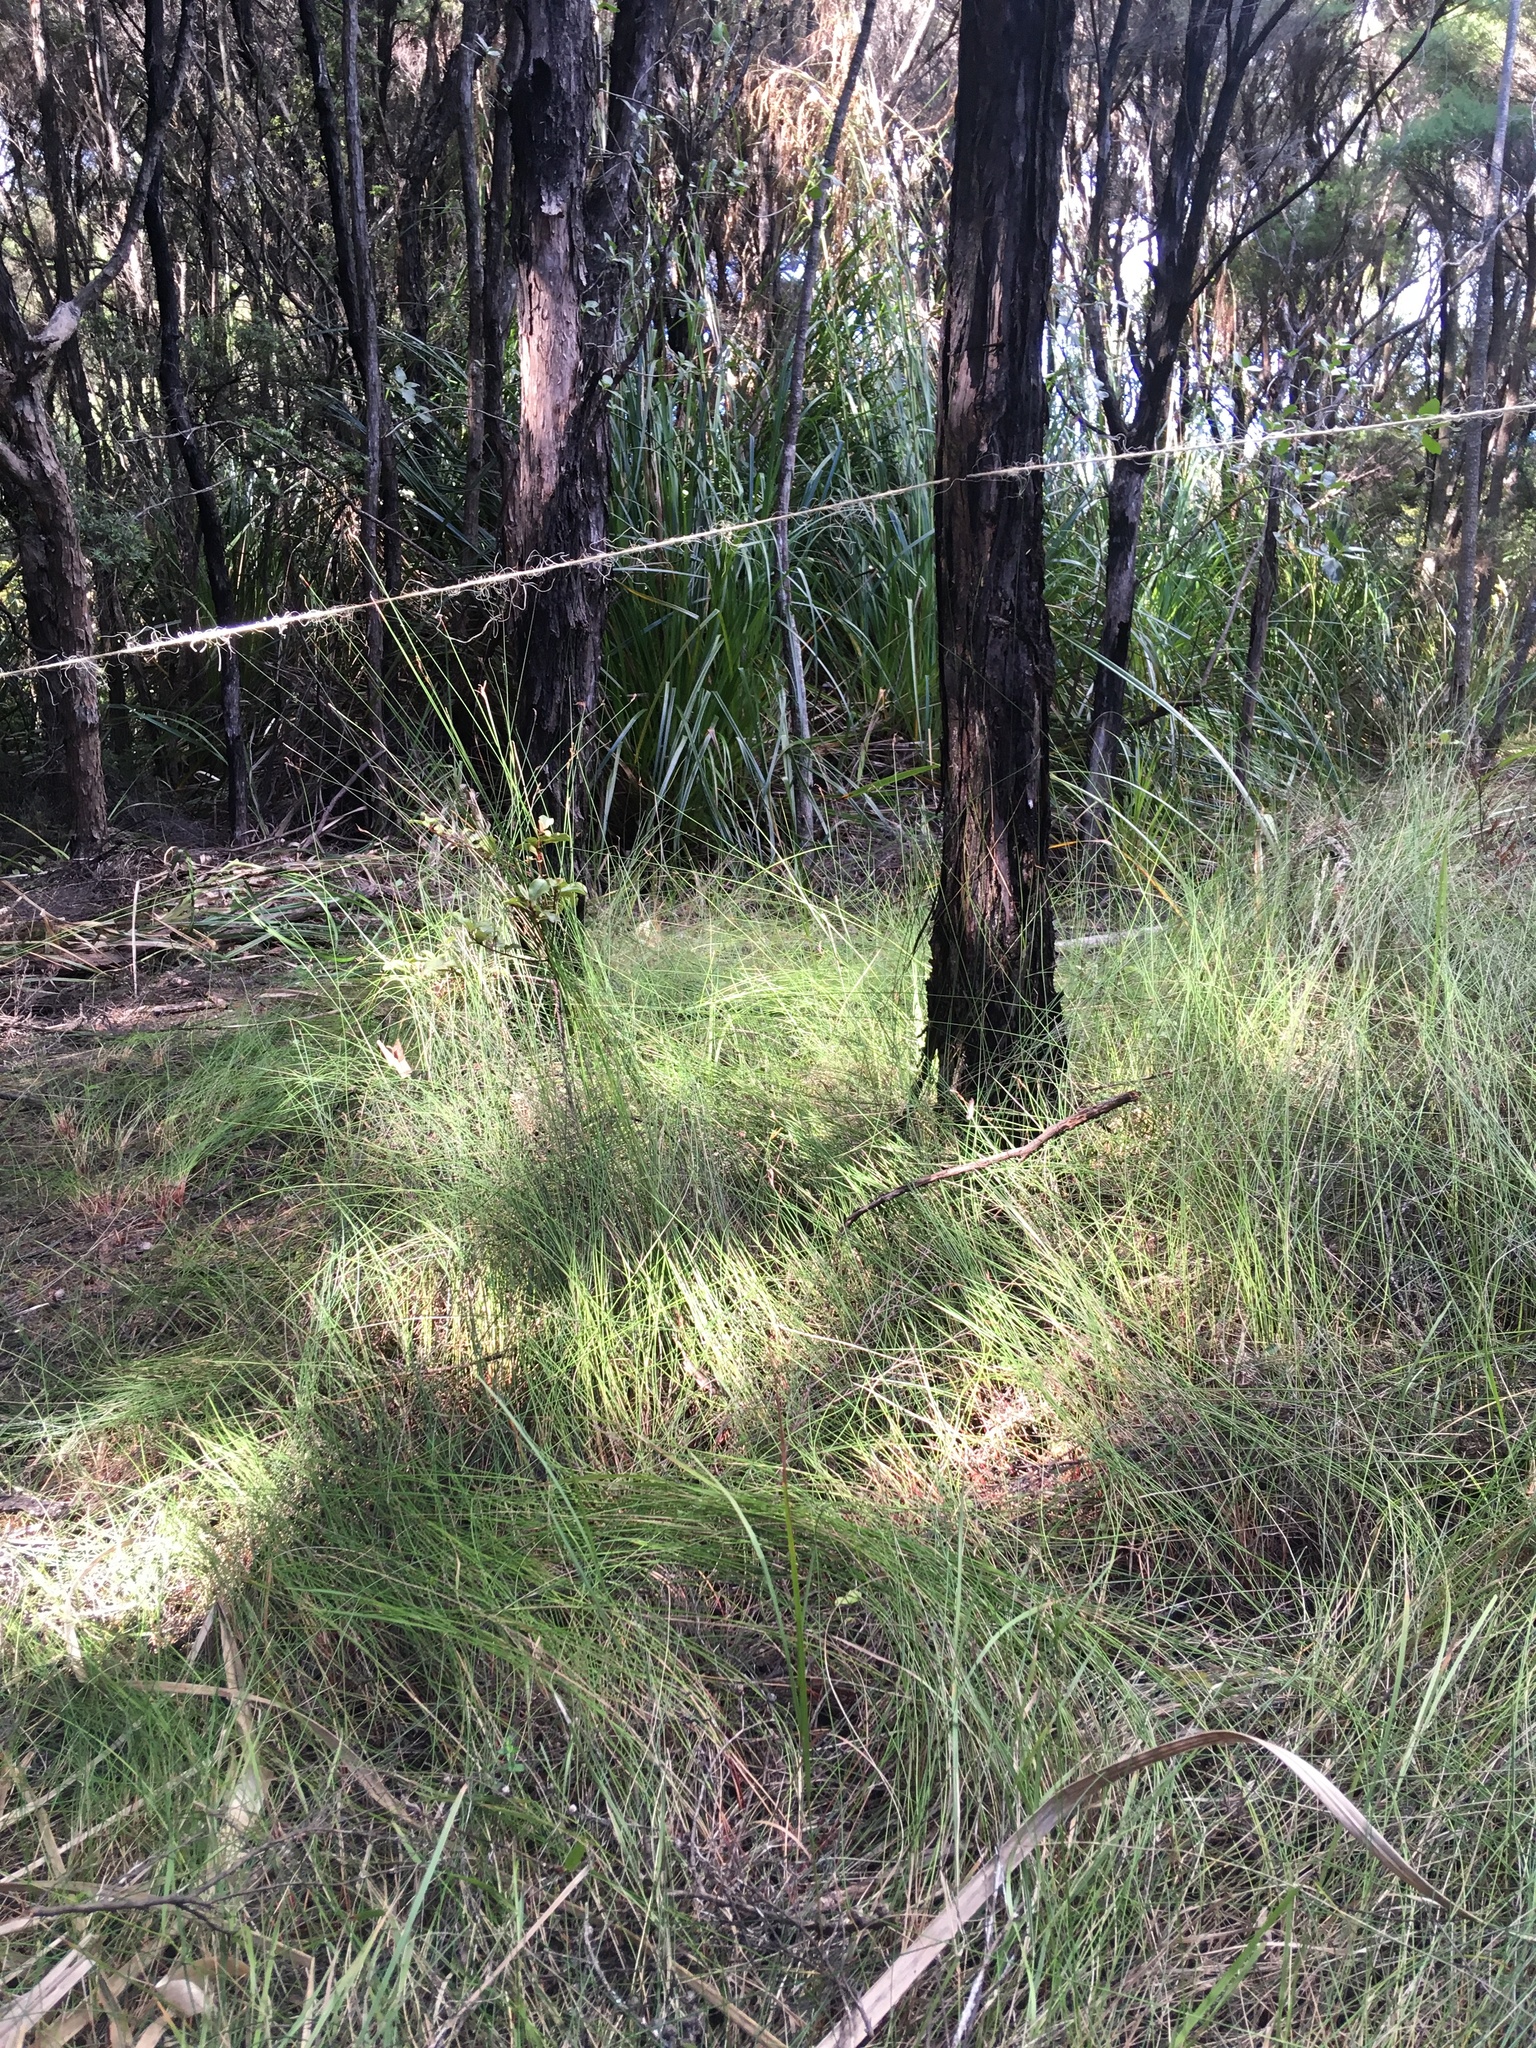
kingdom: Plantae
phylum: Tracheophyta
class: Magnoliopsida
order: Myrtales
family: Myrtaceae
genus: Leptospermum
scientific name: Leptospermum scoparium
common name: Broom tea-tree
